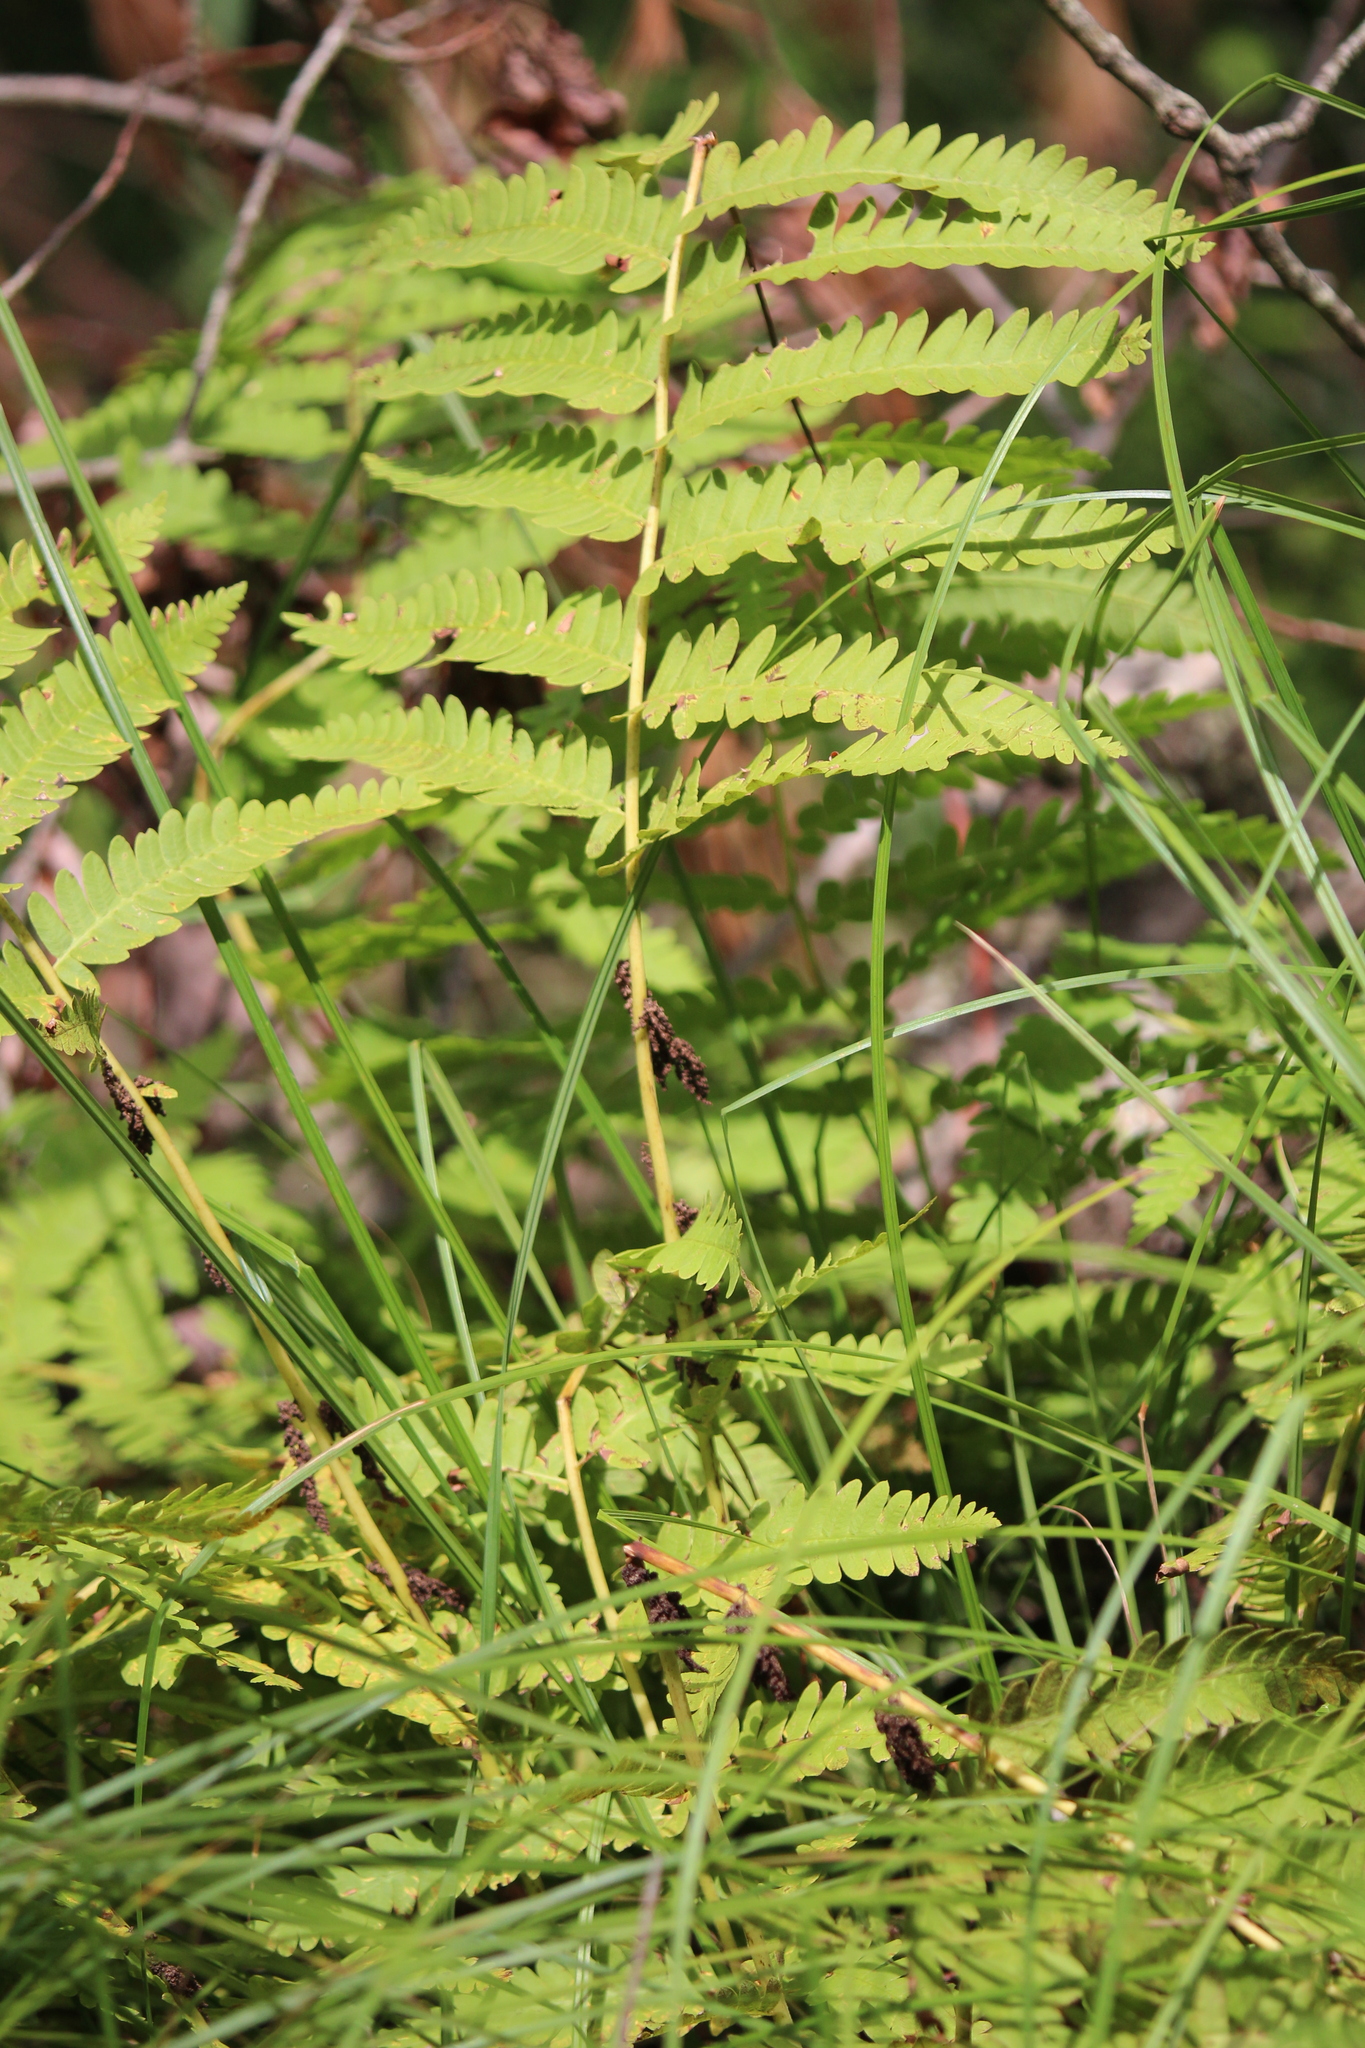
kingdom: Plantae
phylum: Tracheophyta
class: Polypodiopsida
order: Osmundales
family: Osmundaceae
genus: Claytosmunda
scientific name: Claytosmunda claytoniana
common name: Clayton's fern
